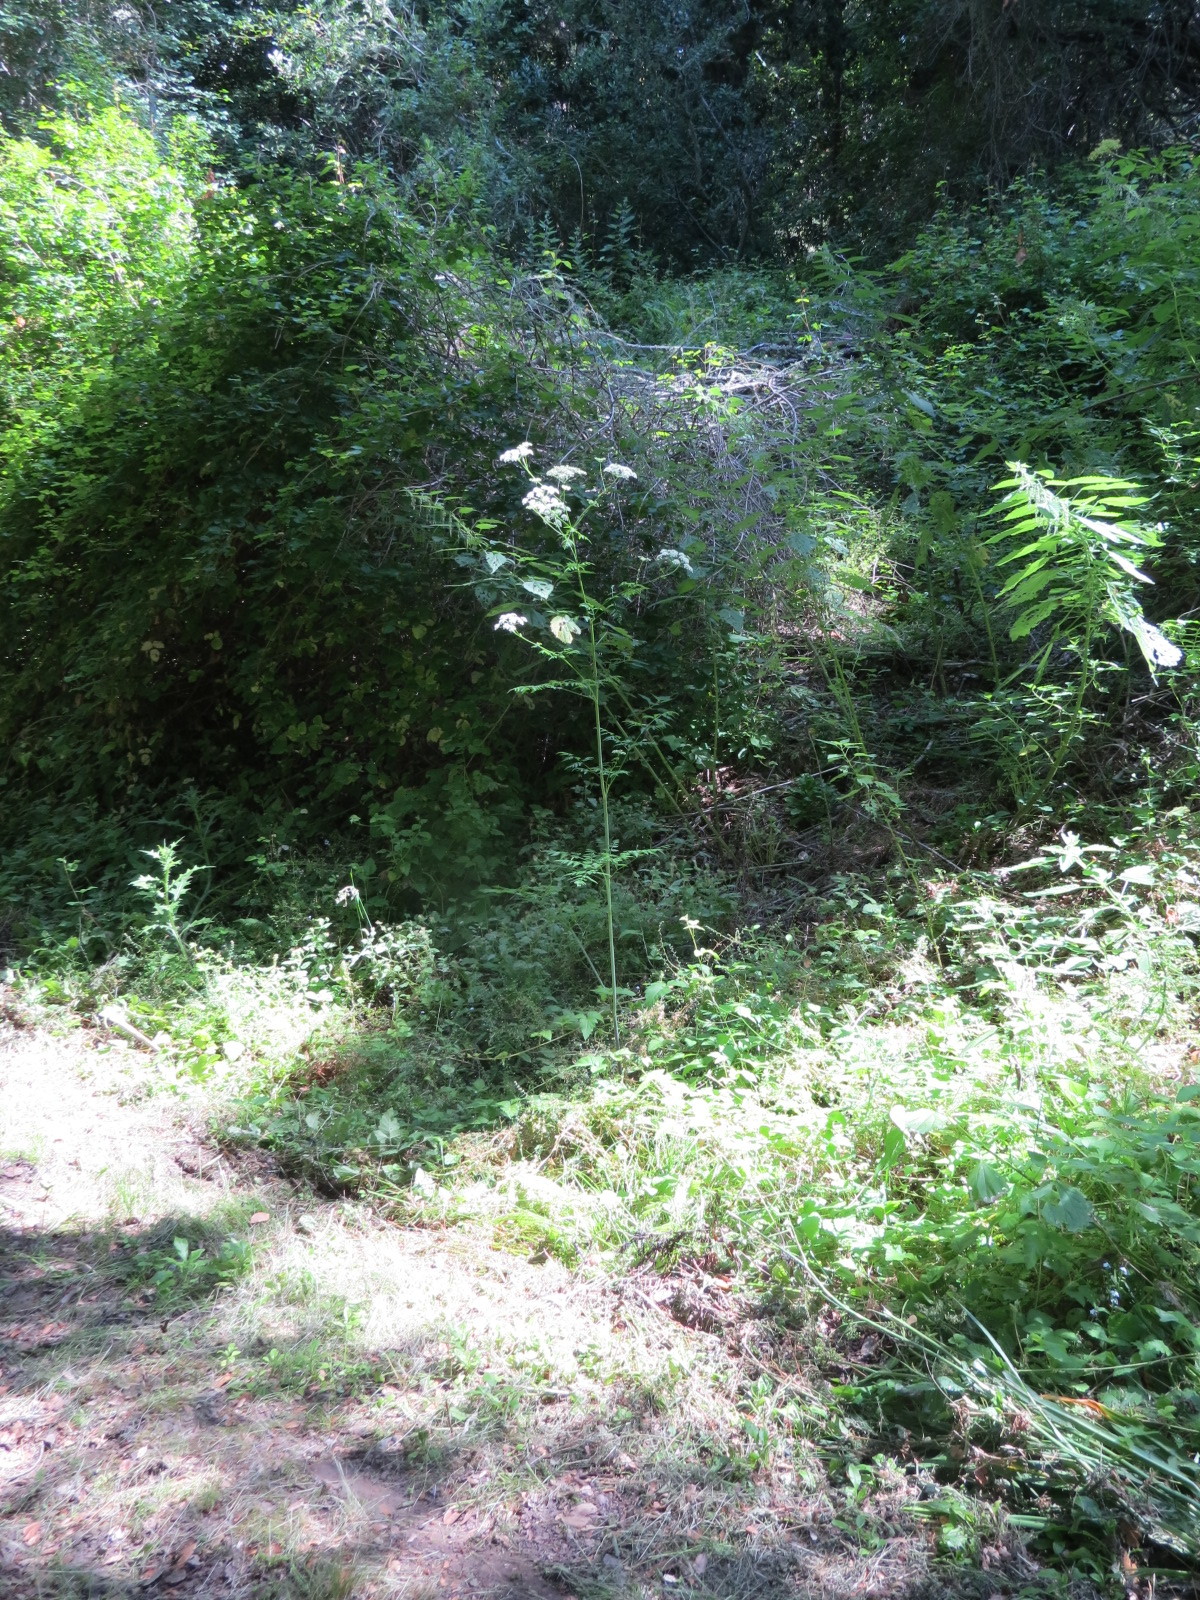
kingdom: Plantae
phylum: Tracheophyta
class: Magnoliopsida
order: Apiales
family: Apiaceae
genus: Conium
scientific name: Conium maculatum
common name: Hemlock
